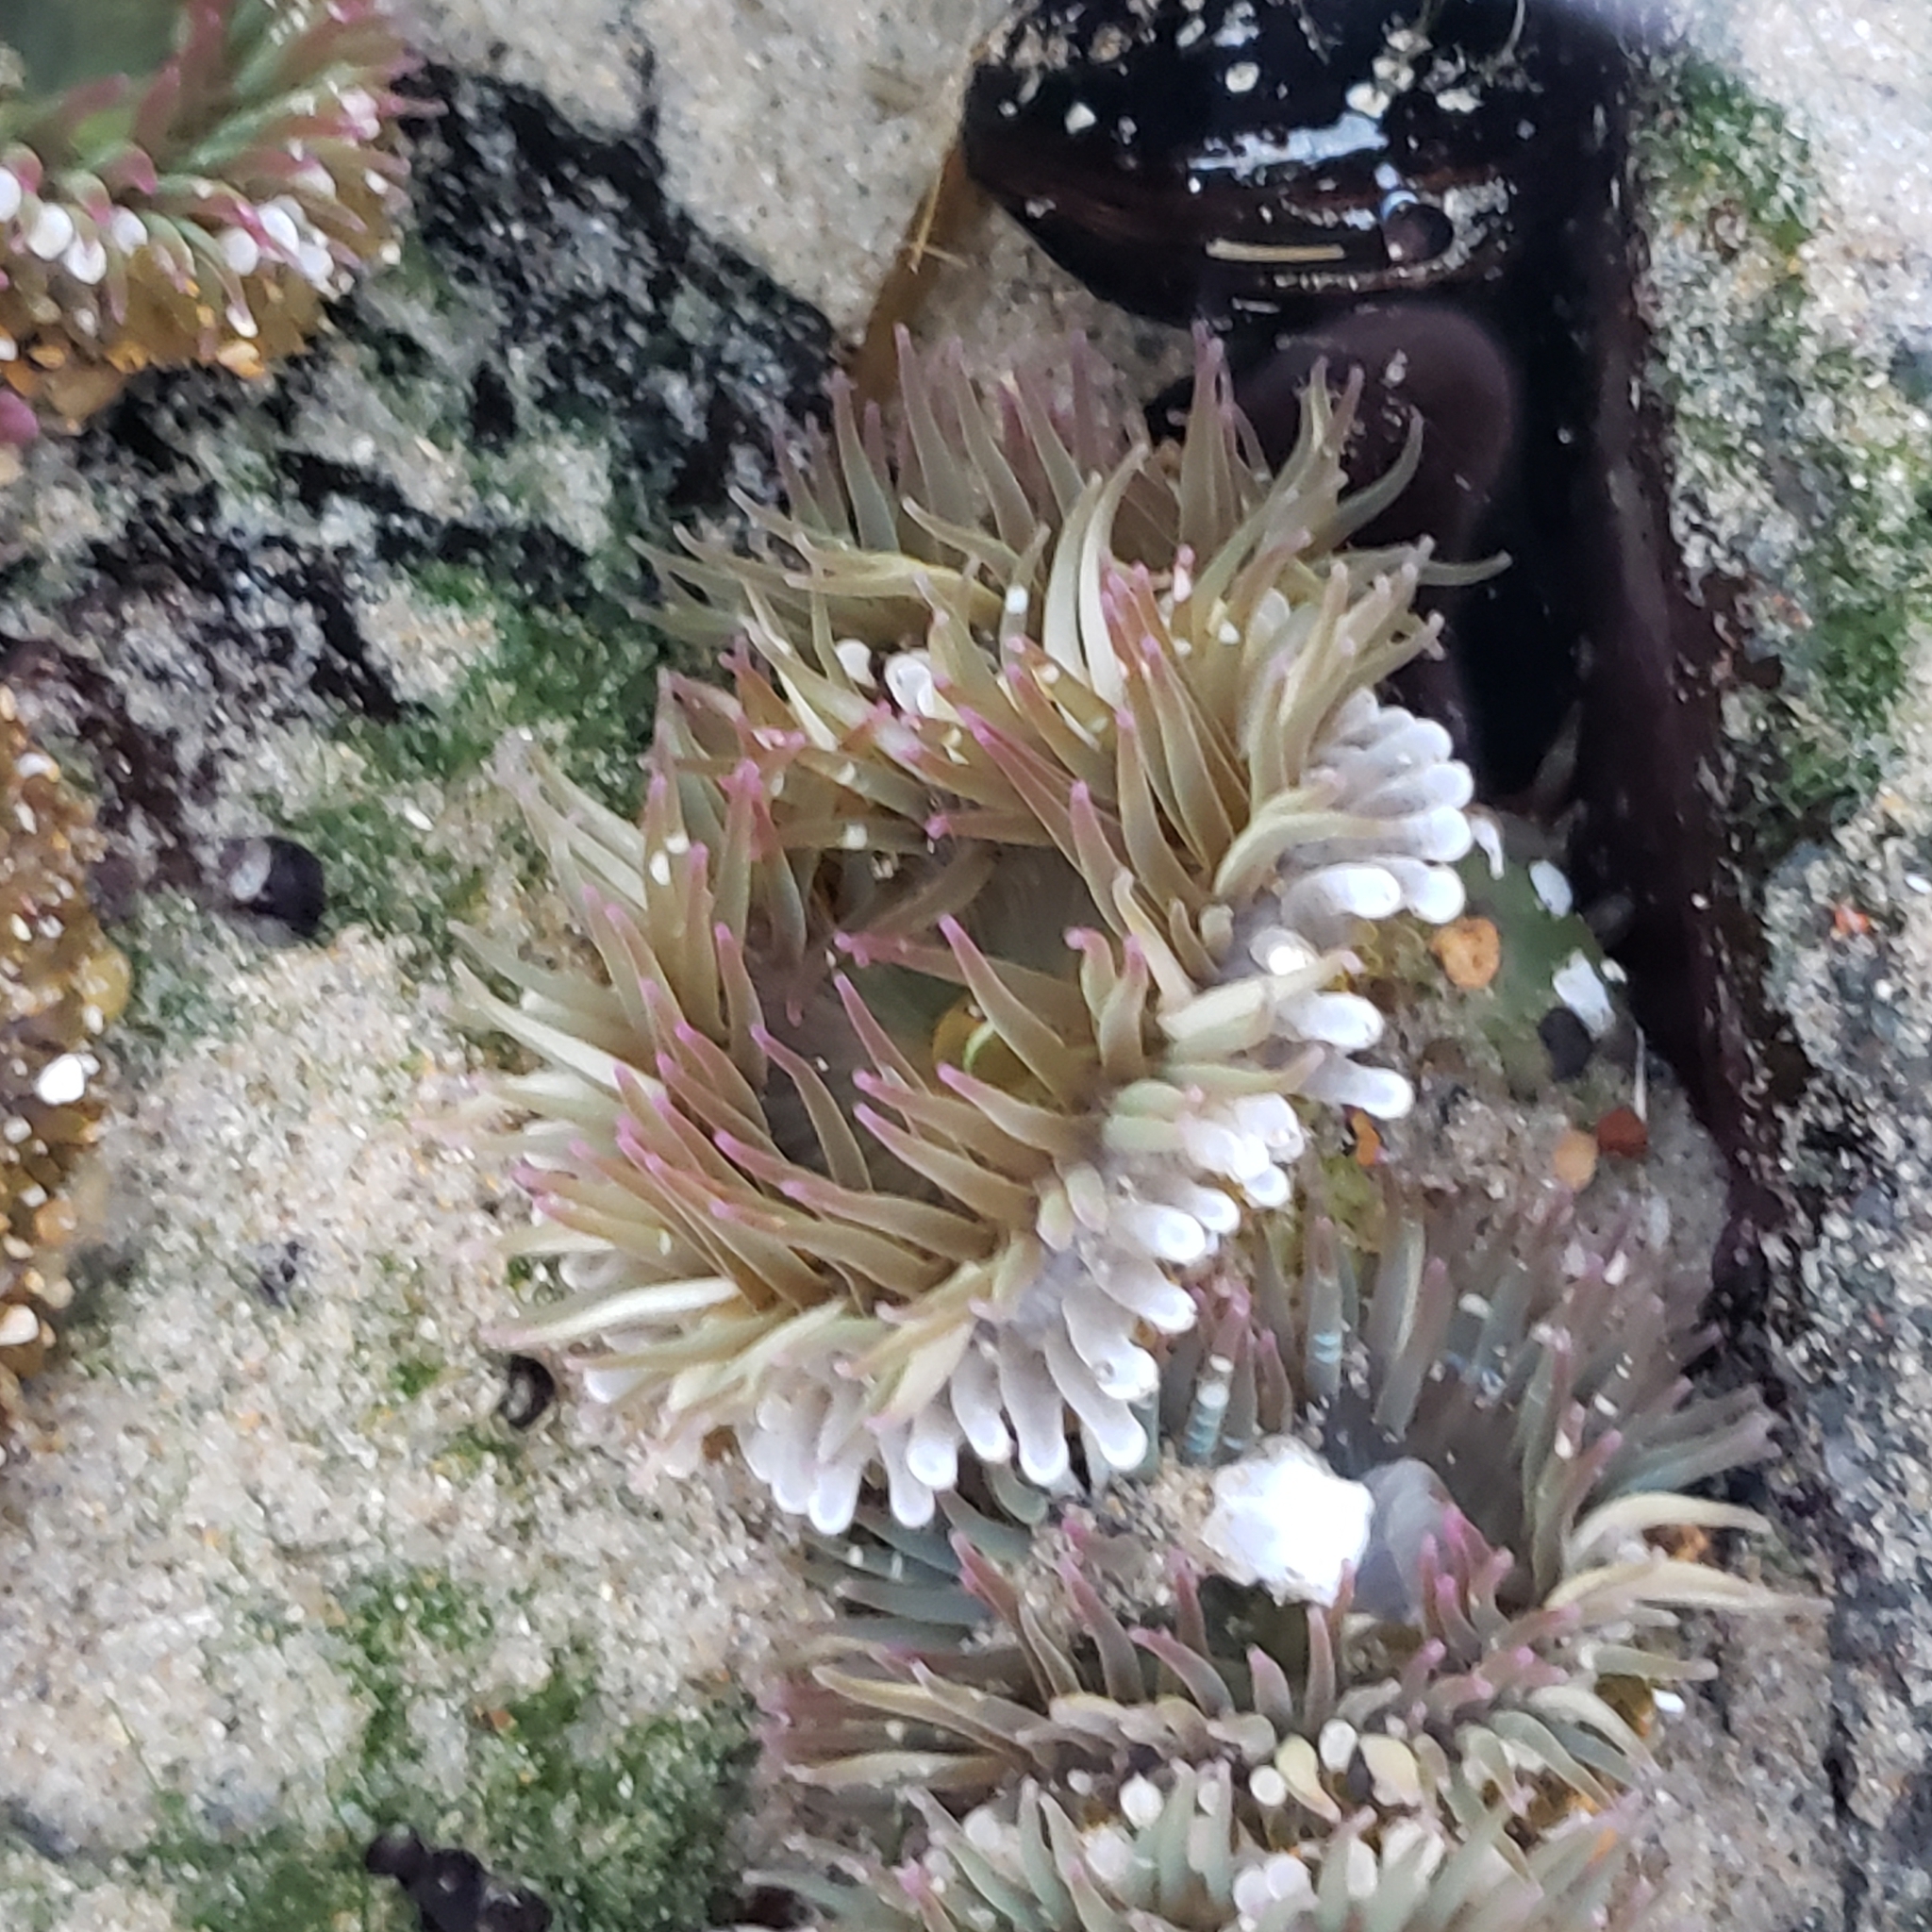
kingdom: Animalia
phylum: Cnidaria
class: Anthozoa
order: Actiniaria
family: Actiniidae
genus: Anthopleura
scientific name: Anthopleura elegantissima
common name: Clonal anemone
